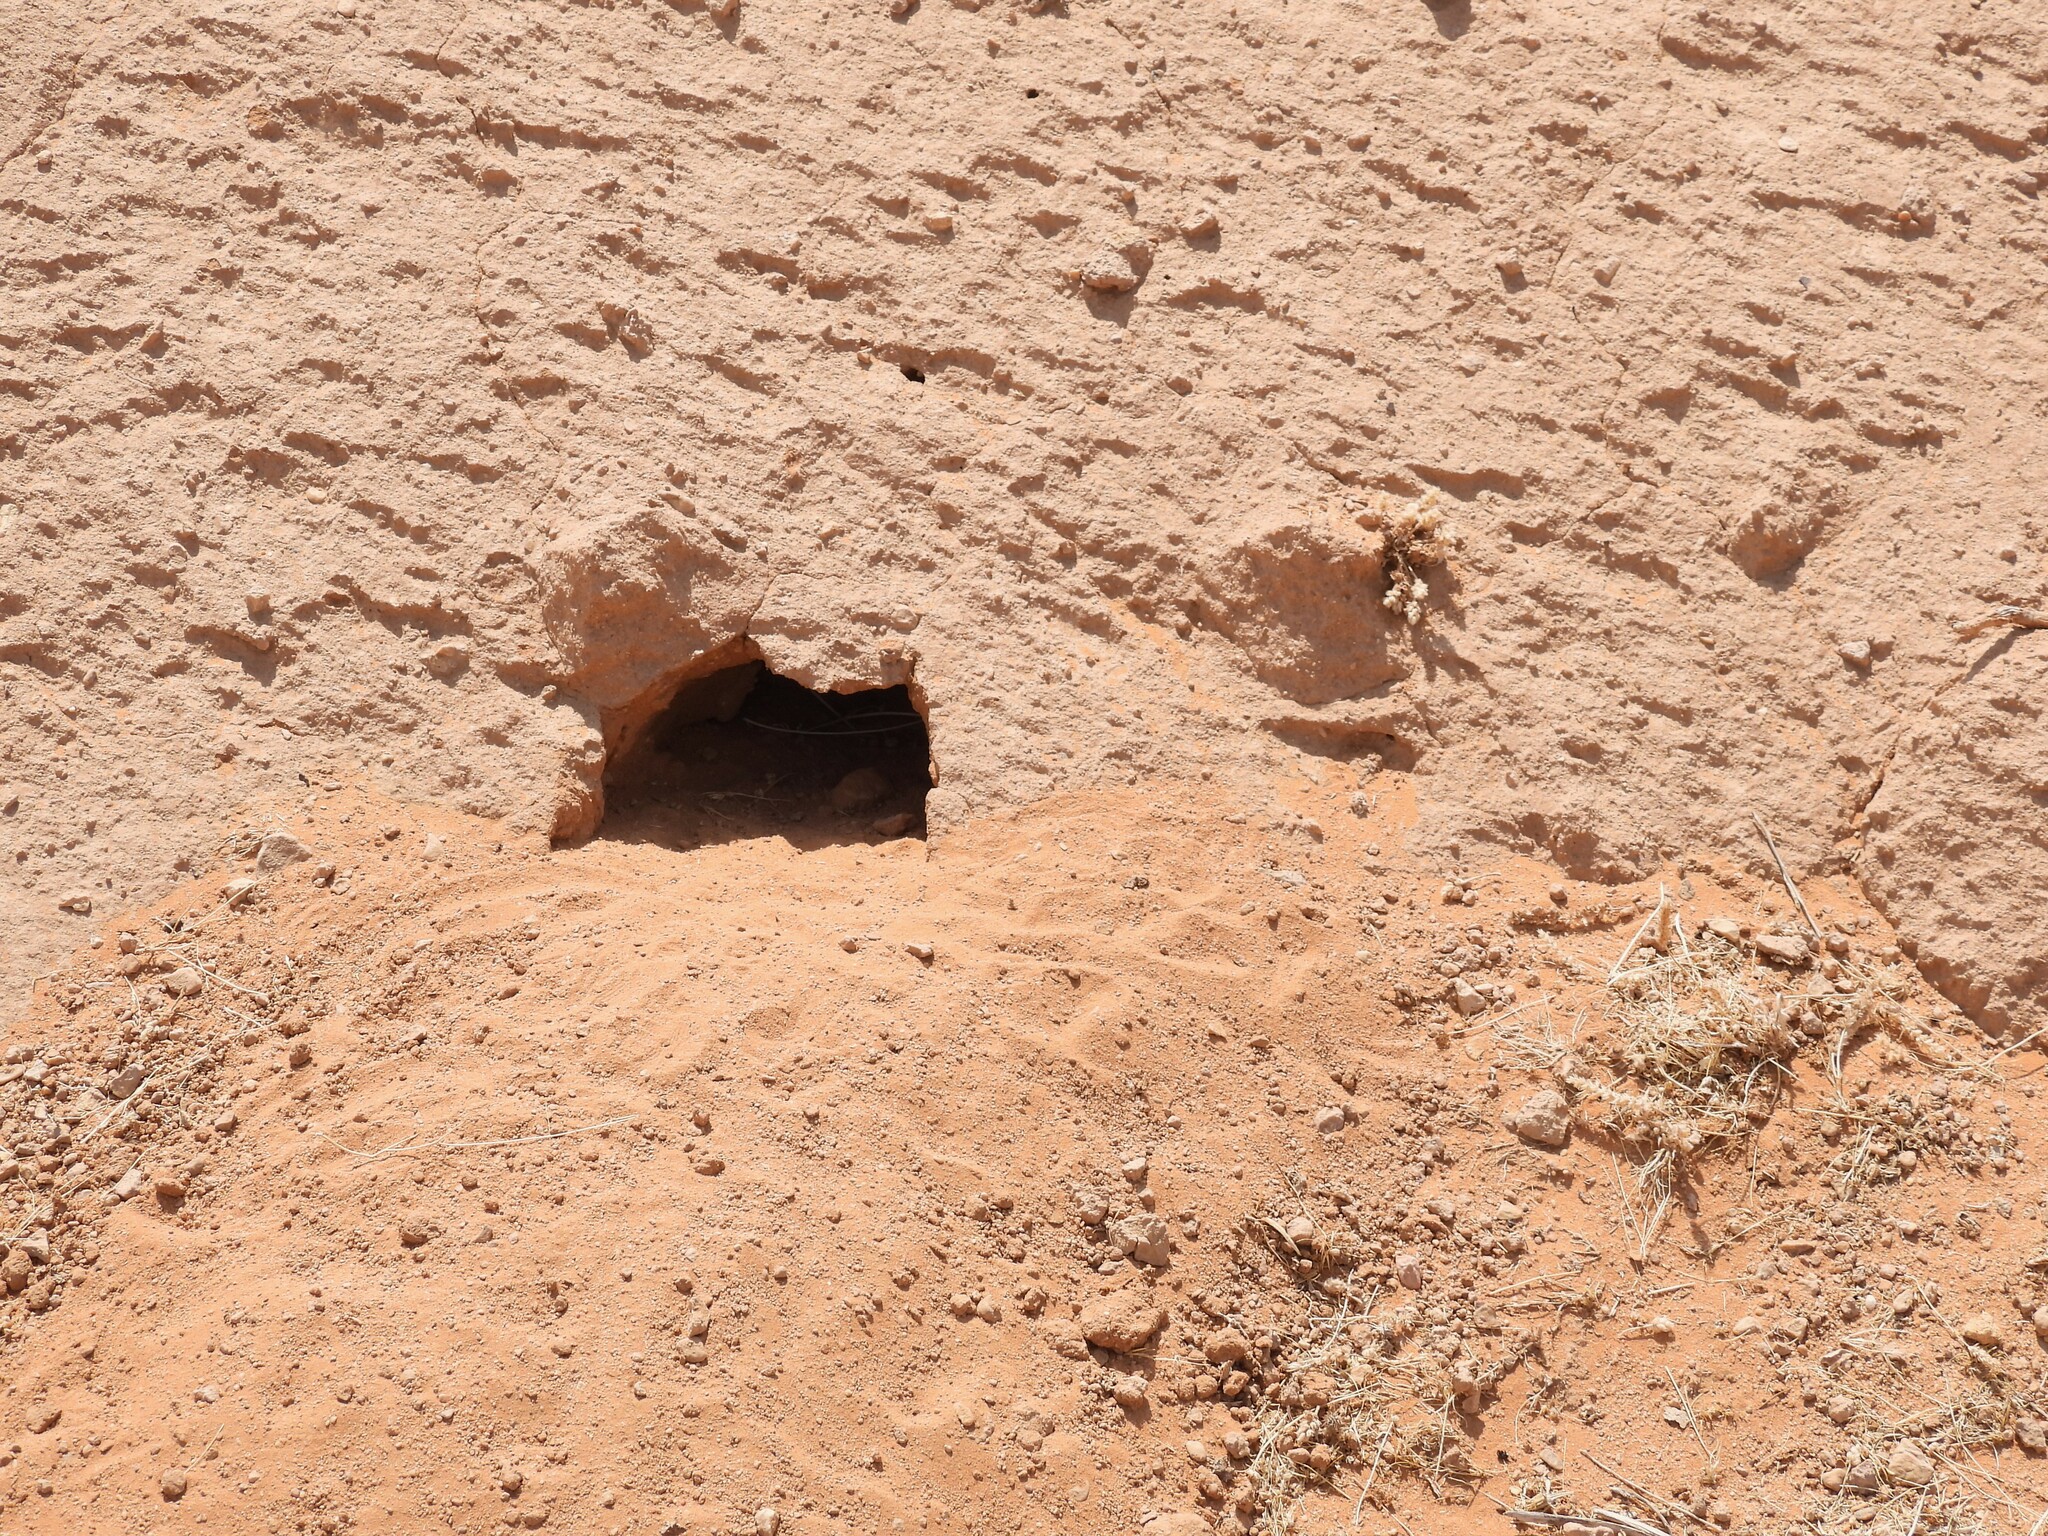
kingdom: Animalia
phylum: Chordata
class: Squamata
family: Agamidae
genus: Uromastyx
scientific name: Uromastyx aegyptia
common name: Egyptian mastigure
